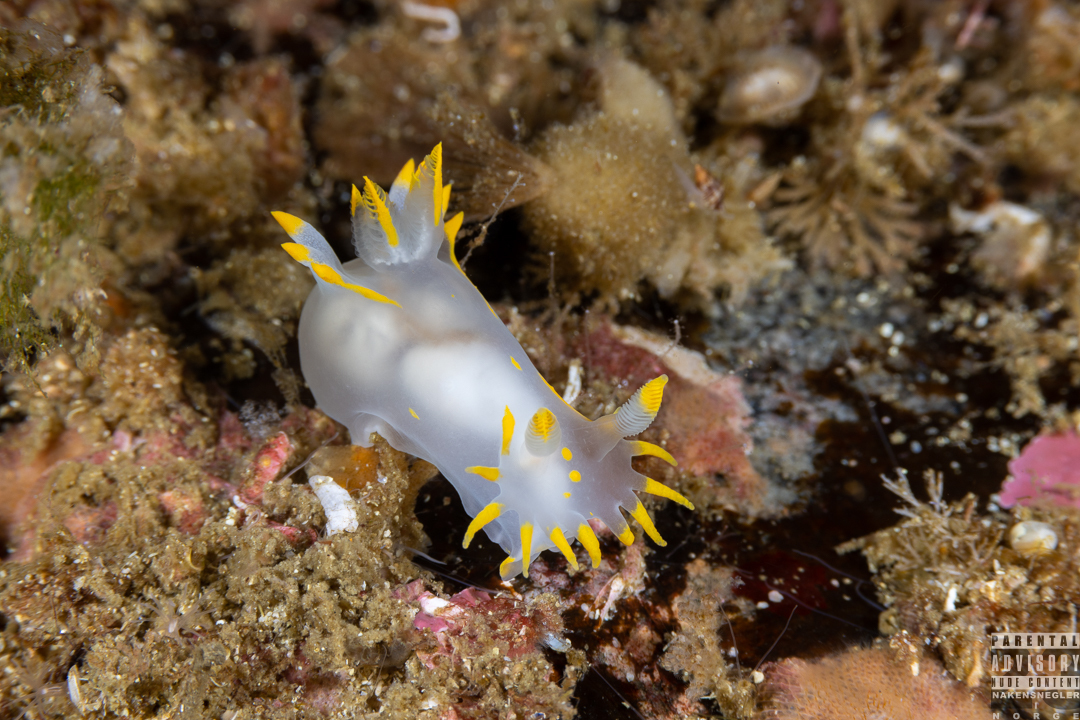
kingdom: Animalia
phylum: Mollusca
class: Gastropoda
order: Nudibranchia
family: Polyceridae
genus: Polycera
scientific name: Polycera faeroensis
